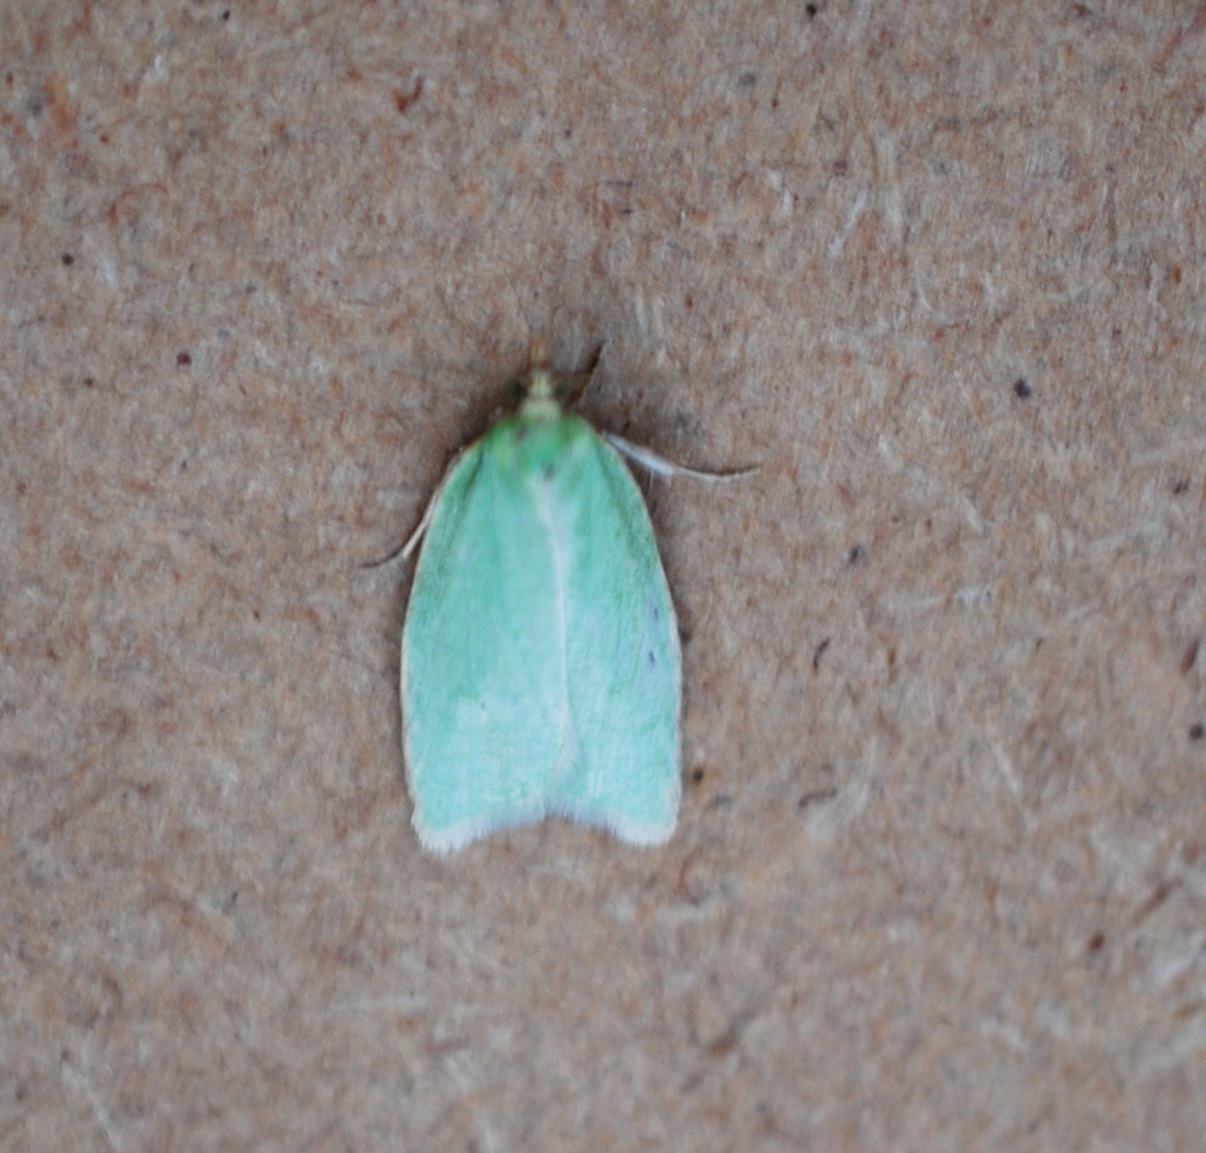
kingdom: Animalia
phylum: Arthropoda
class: Insecta
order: Lepidoptera
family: Tortricidae
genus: Tortrix
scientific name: Tortrix viridana
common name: Green oak tortrix
